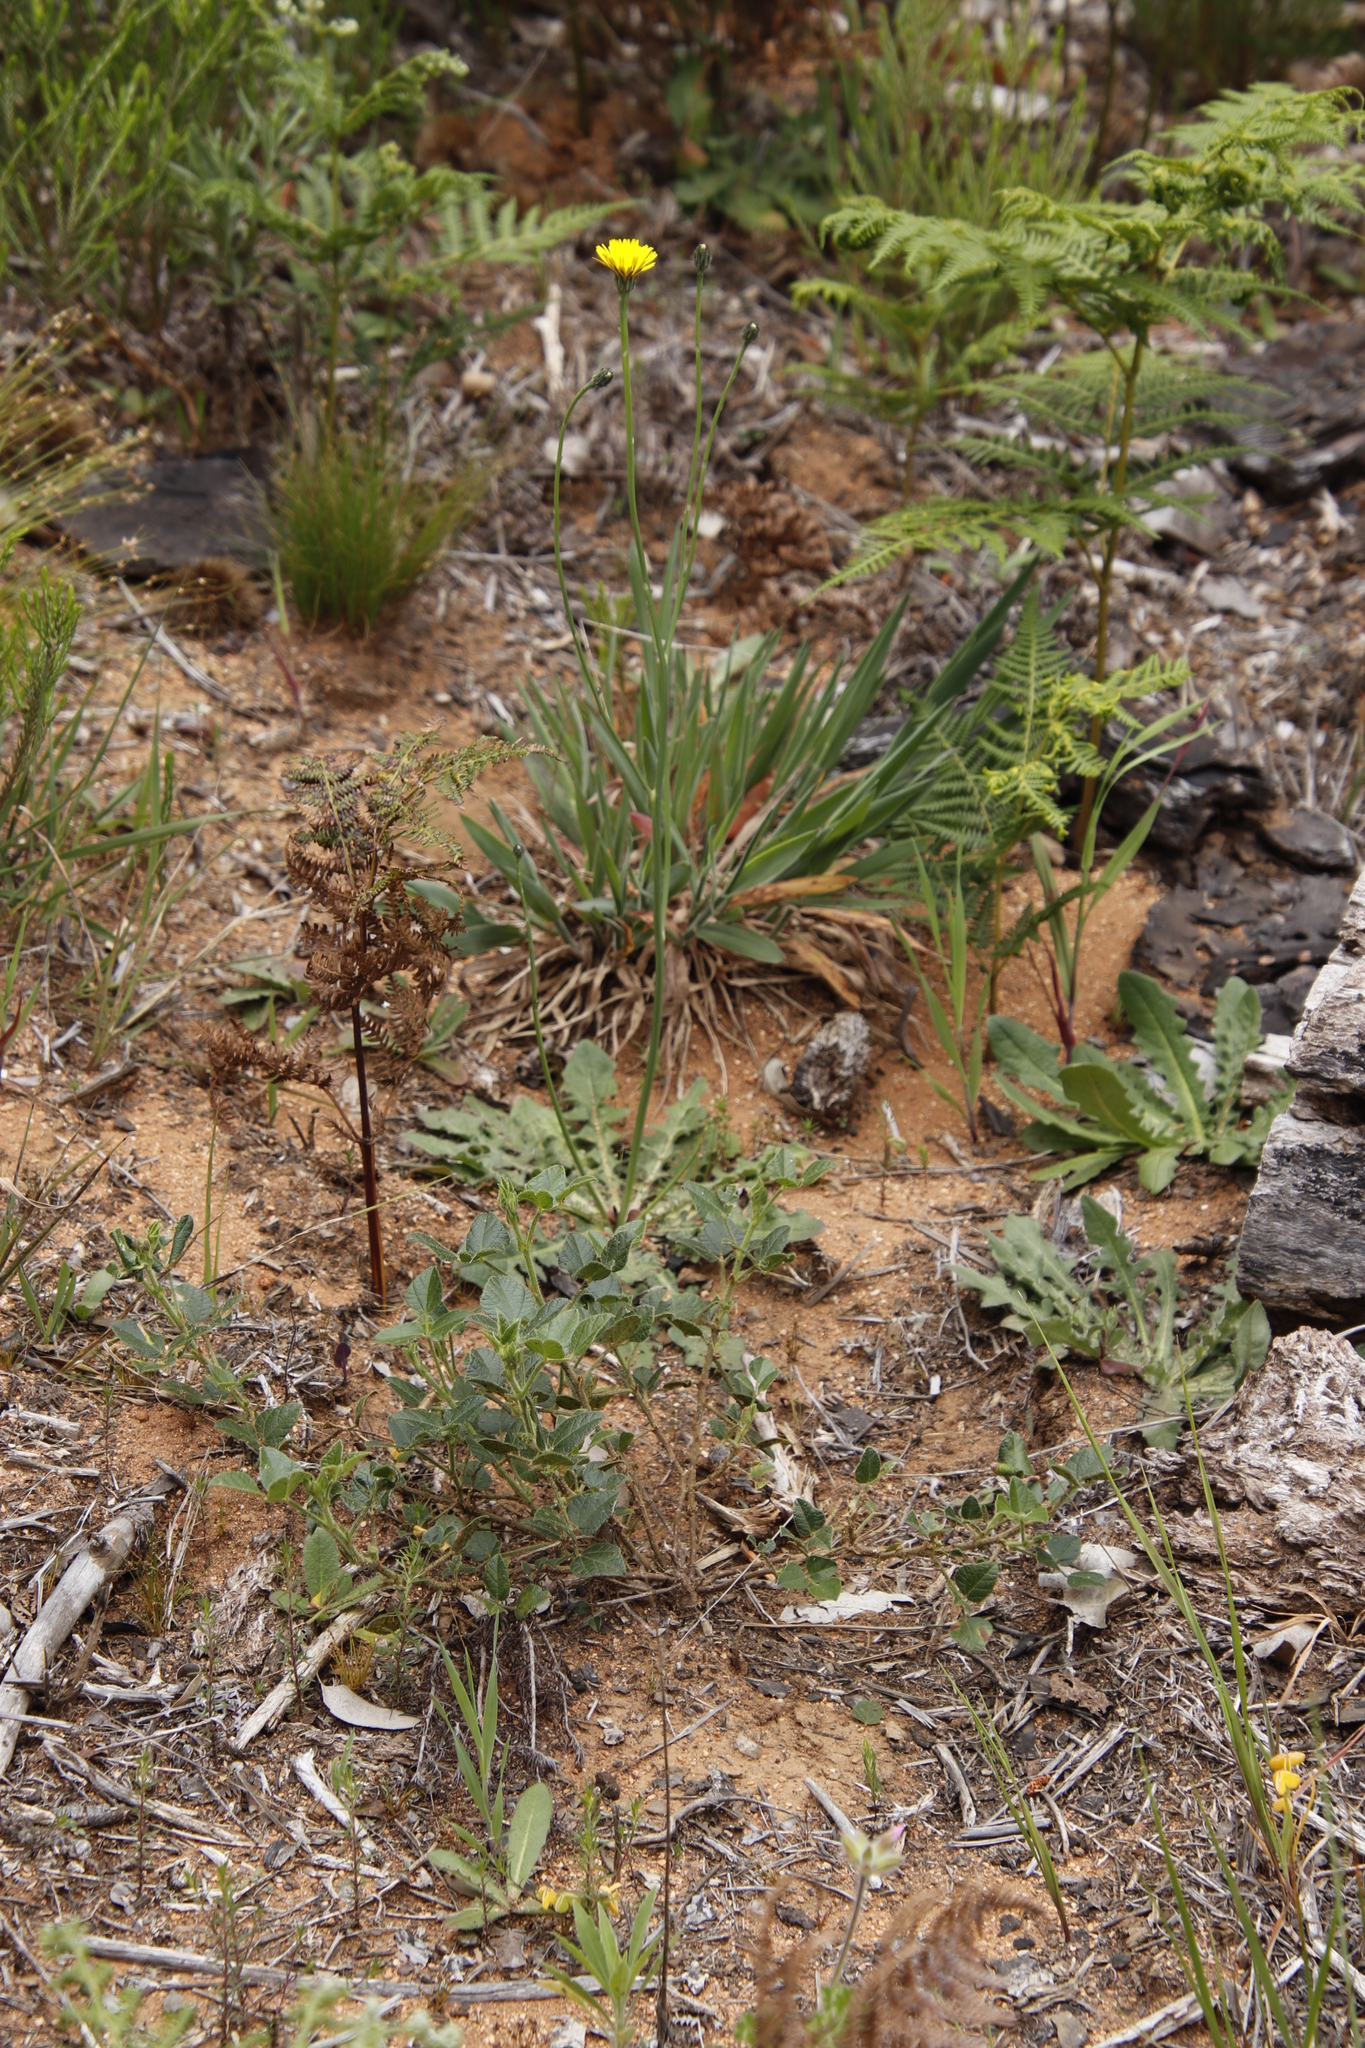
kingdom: Plantae
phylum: Tracheophyta
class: Magnoliopsida
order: Asterales
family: Asteraceae
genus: Hypochaeris
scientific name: Hypochaeris radicata
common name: Flatweed
